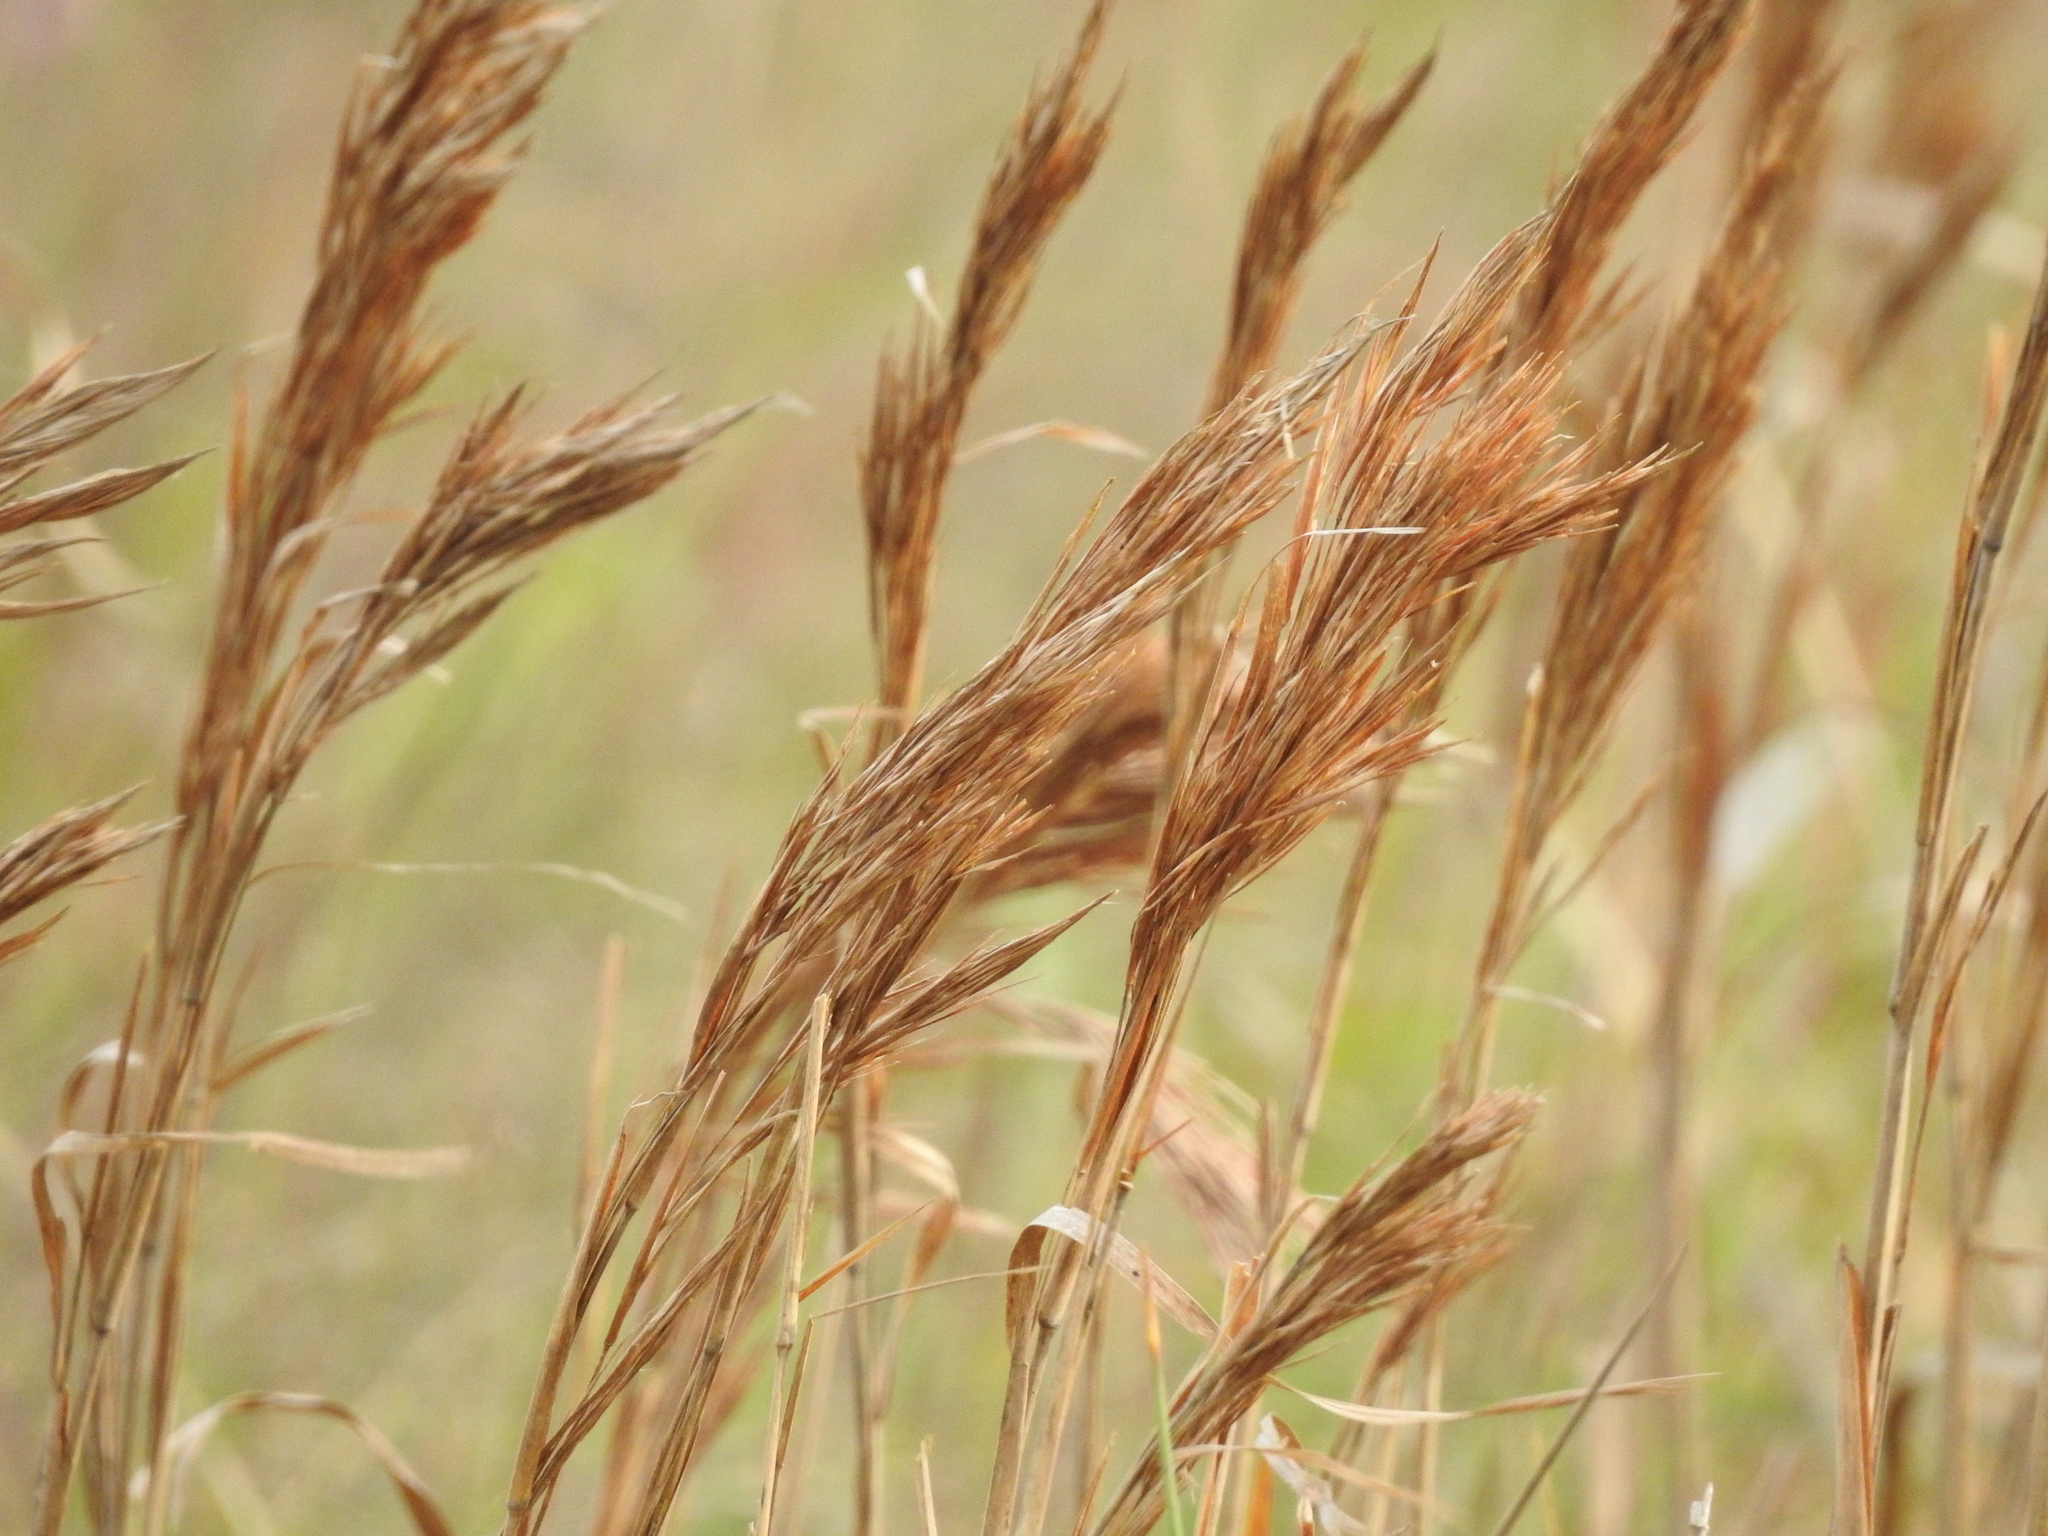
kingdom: Plantae
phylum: Tracheophyta
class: Liliopsida
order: Poales
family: Poaceae
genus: Andropogon
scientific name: Andropogon tenuispatheus
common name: Bushy bluestem
